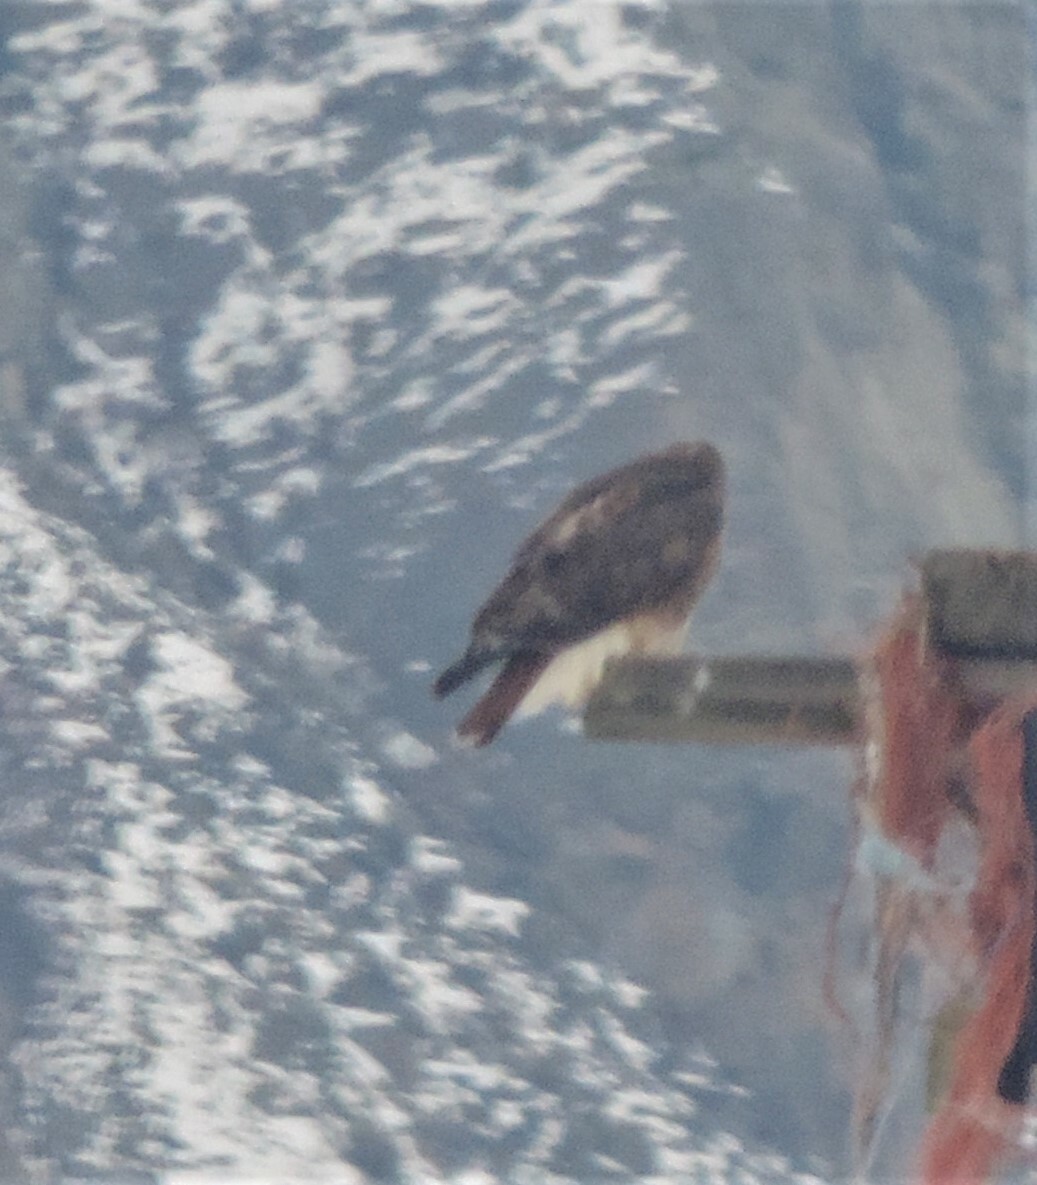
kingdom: Animalia
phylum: Chordata
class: Aves
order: Accipitriformes
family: Accipitridae
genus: Buteo
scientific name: Buteo jamaicensis
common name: Red-tailed hawk
